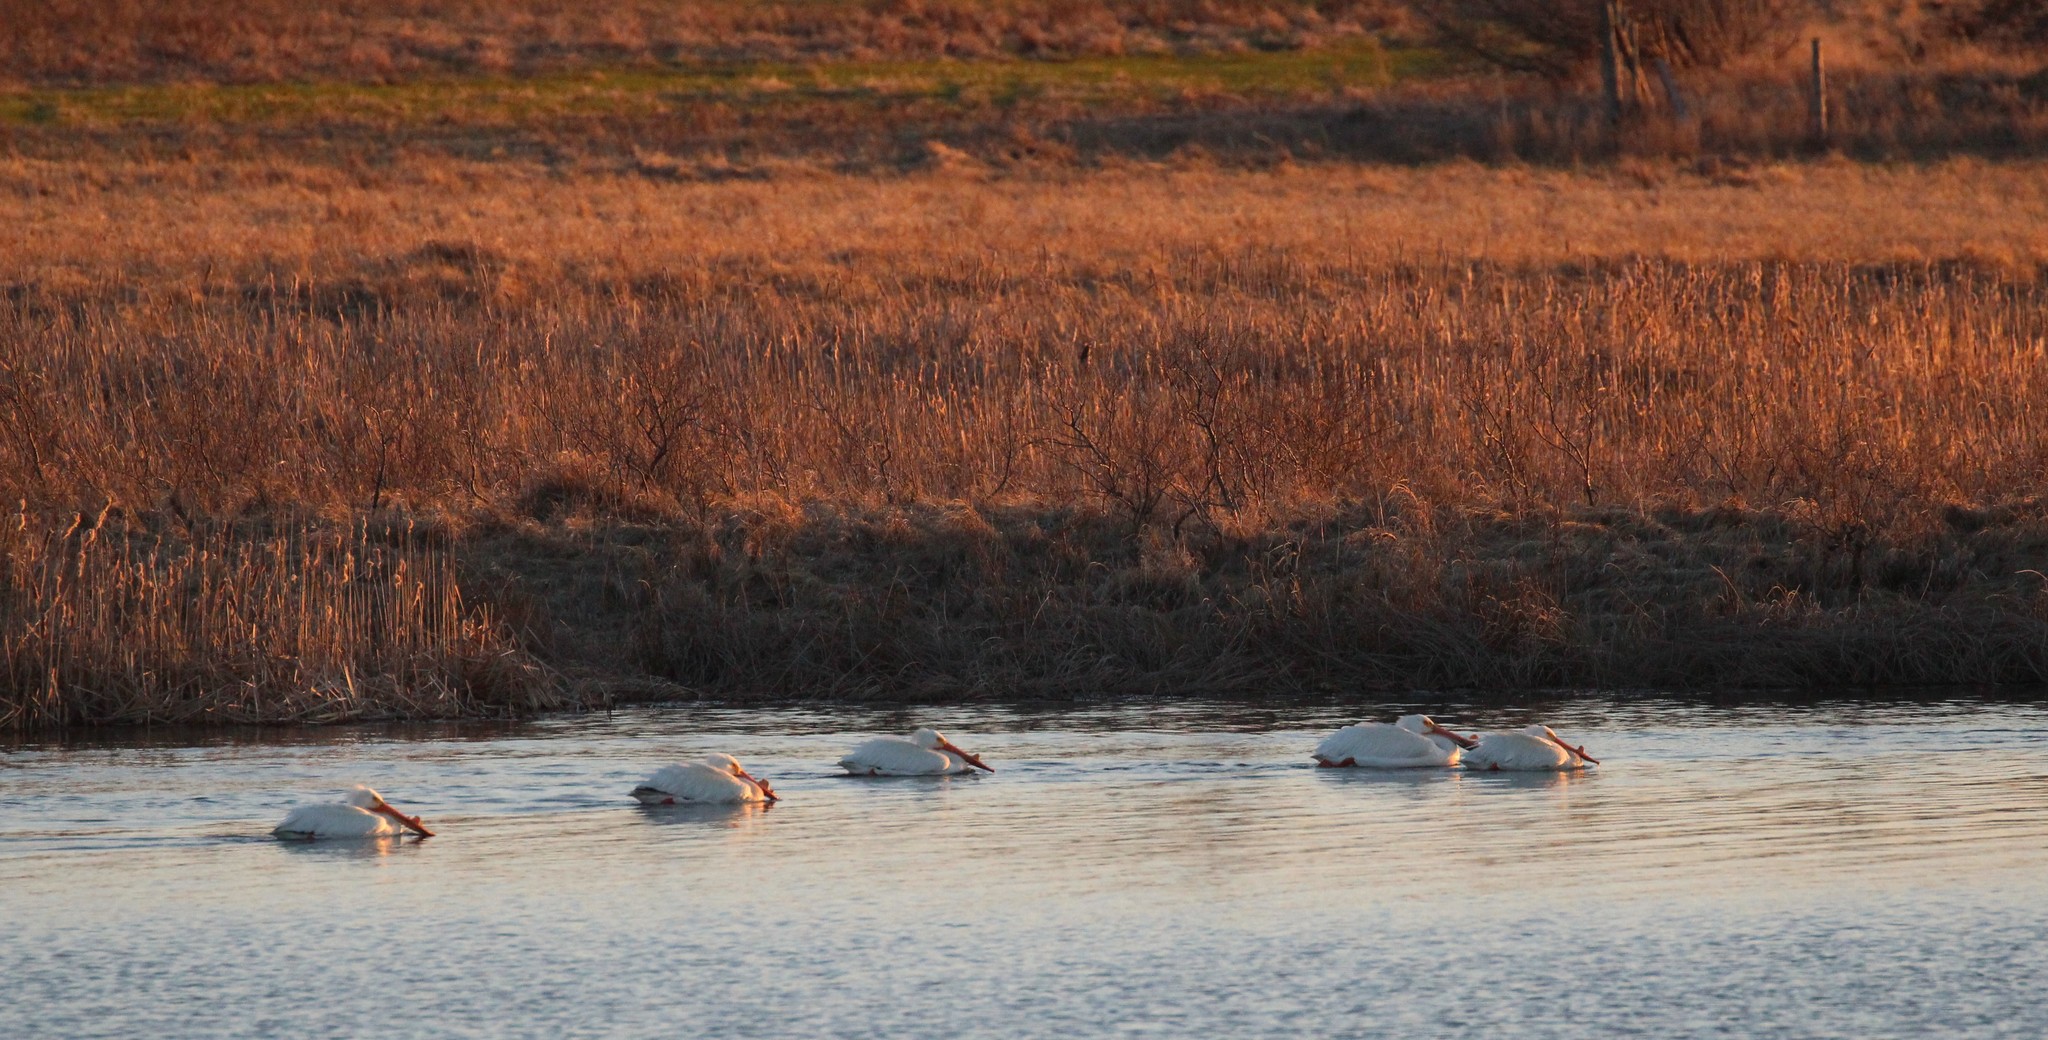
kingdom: Animalia
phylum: Chordata
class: Aves
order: Pelecaniformes
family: Pelecanidae
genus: Pelecanus
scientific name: Pelecanus erythrorhynchos
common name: American white pelican
